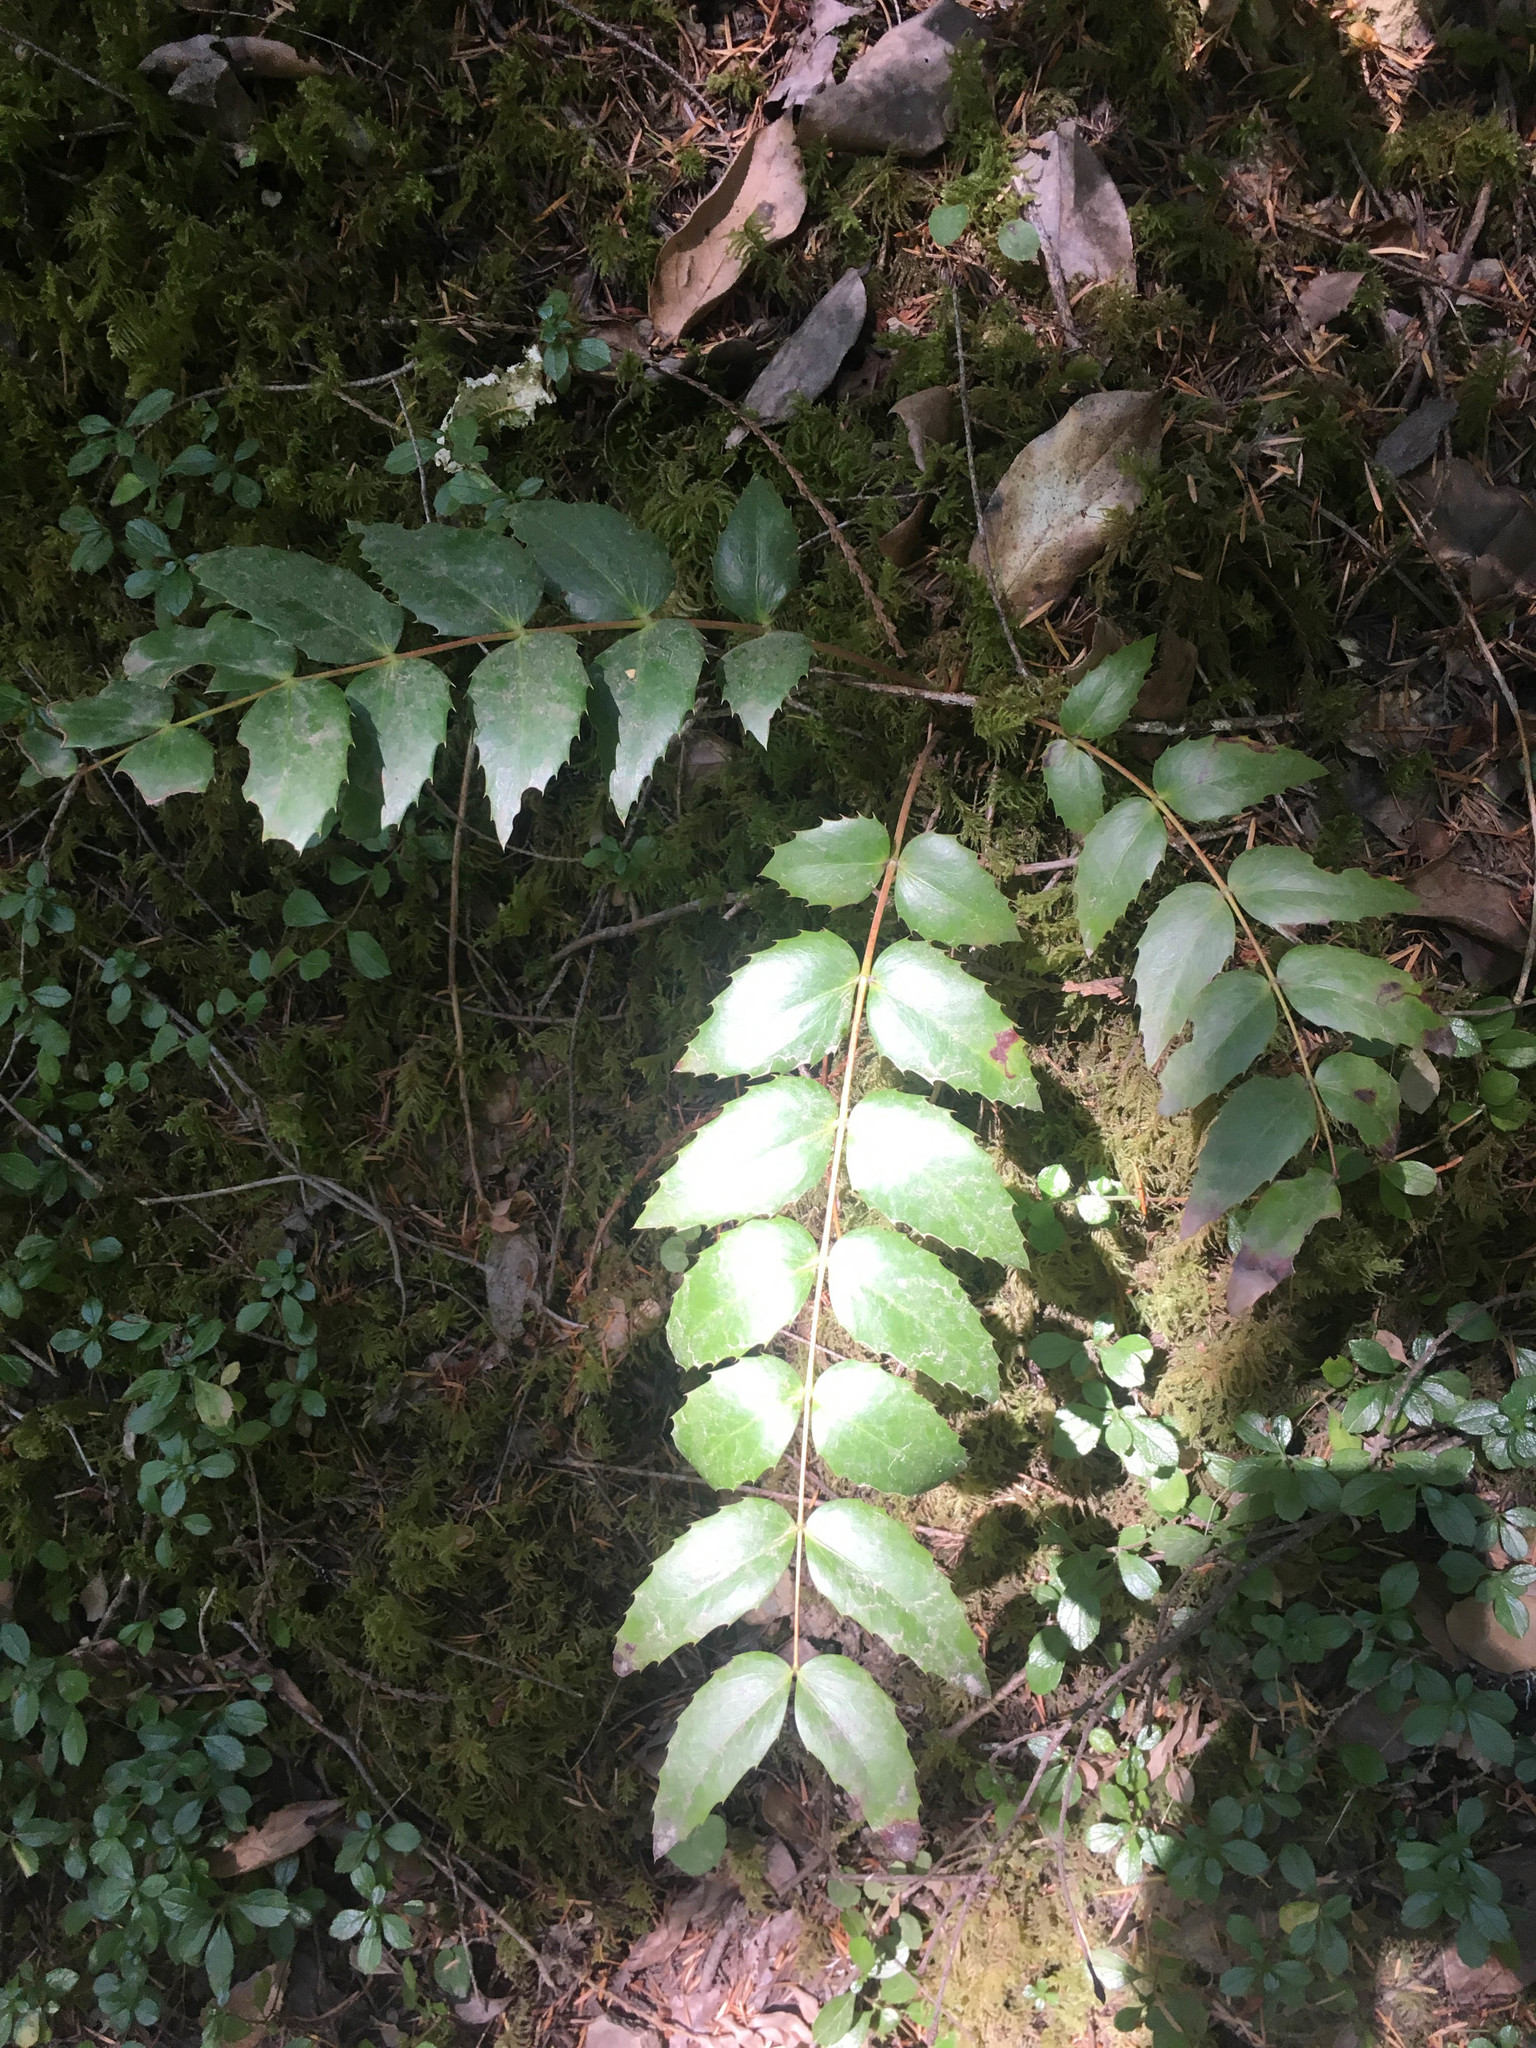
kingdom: Plantae
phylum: Tracheophyta
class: Magnoliopsida
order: Ranunculales
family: Berberidaceae
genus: Mahonia
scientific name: Mahonia nervosa
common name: Cascade oregon-grape
